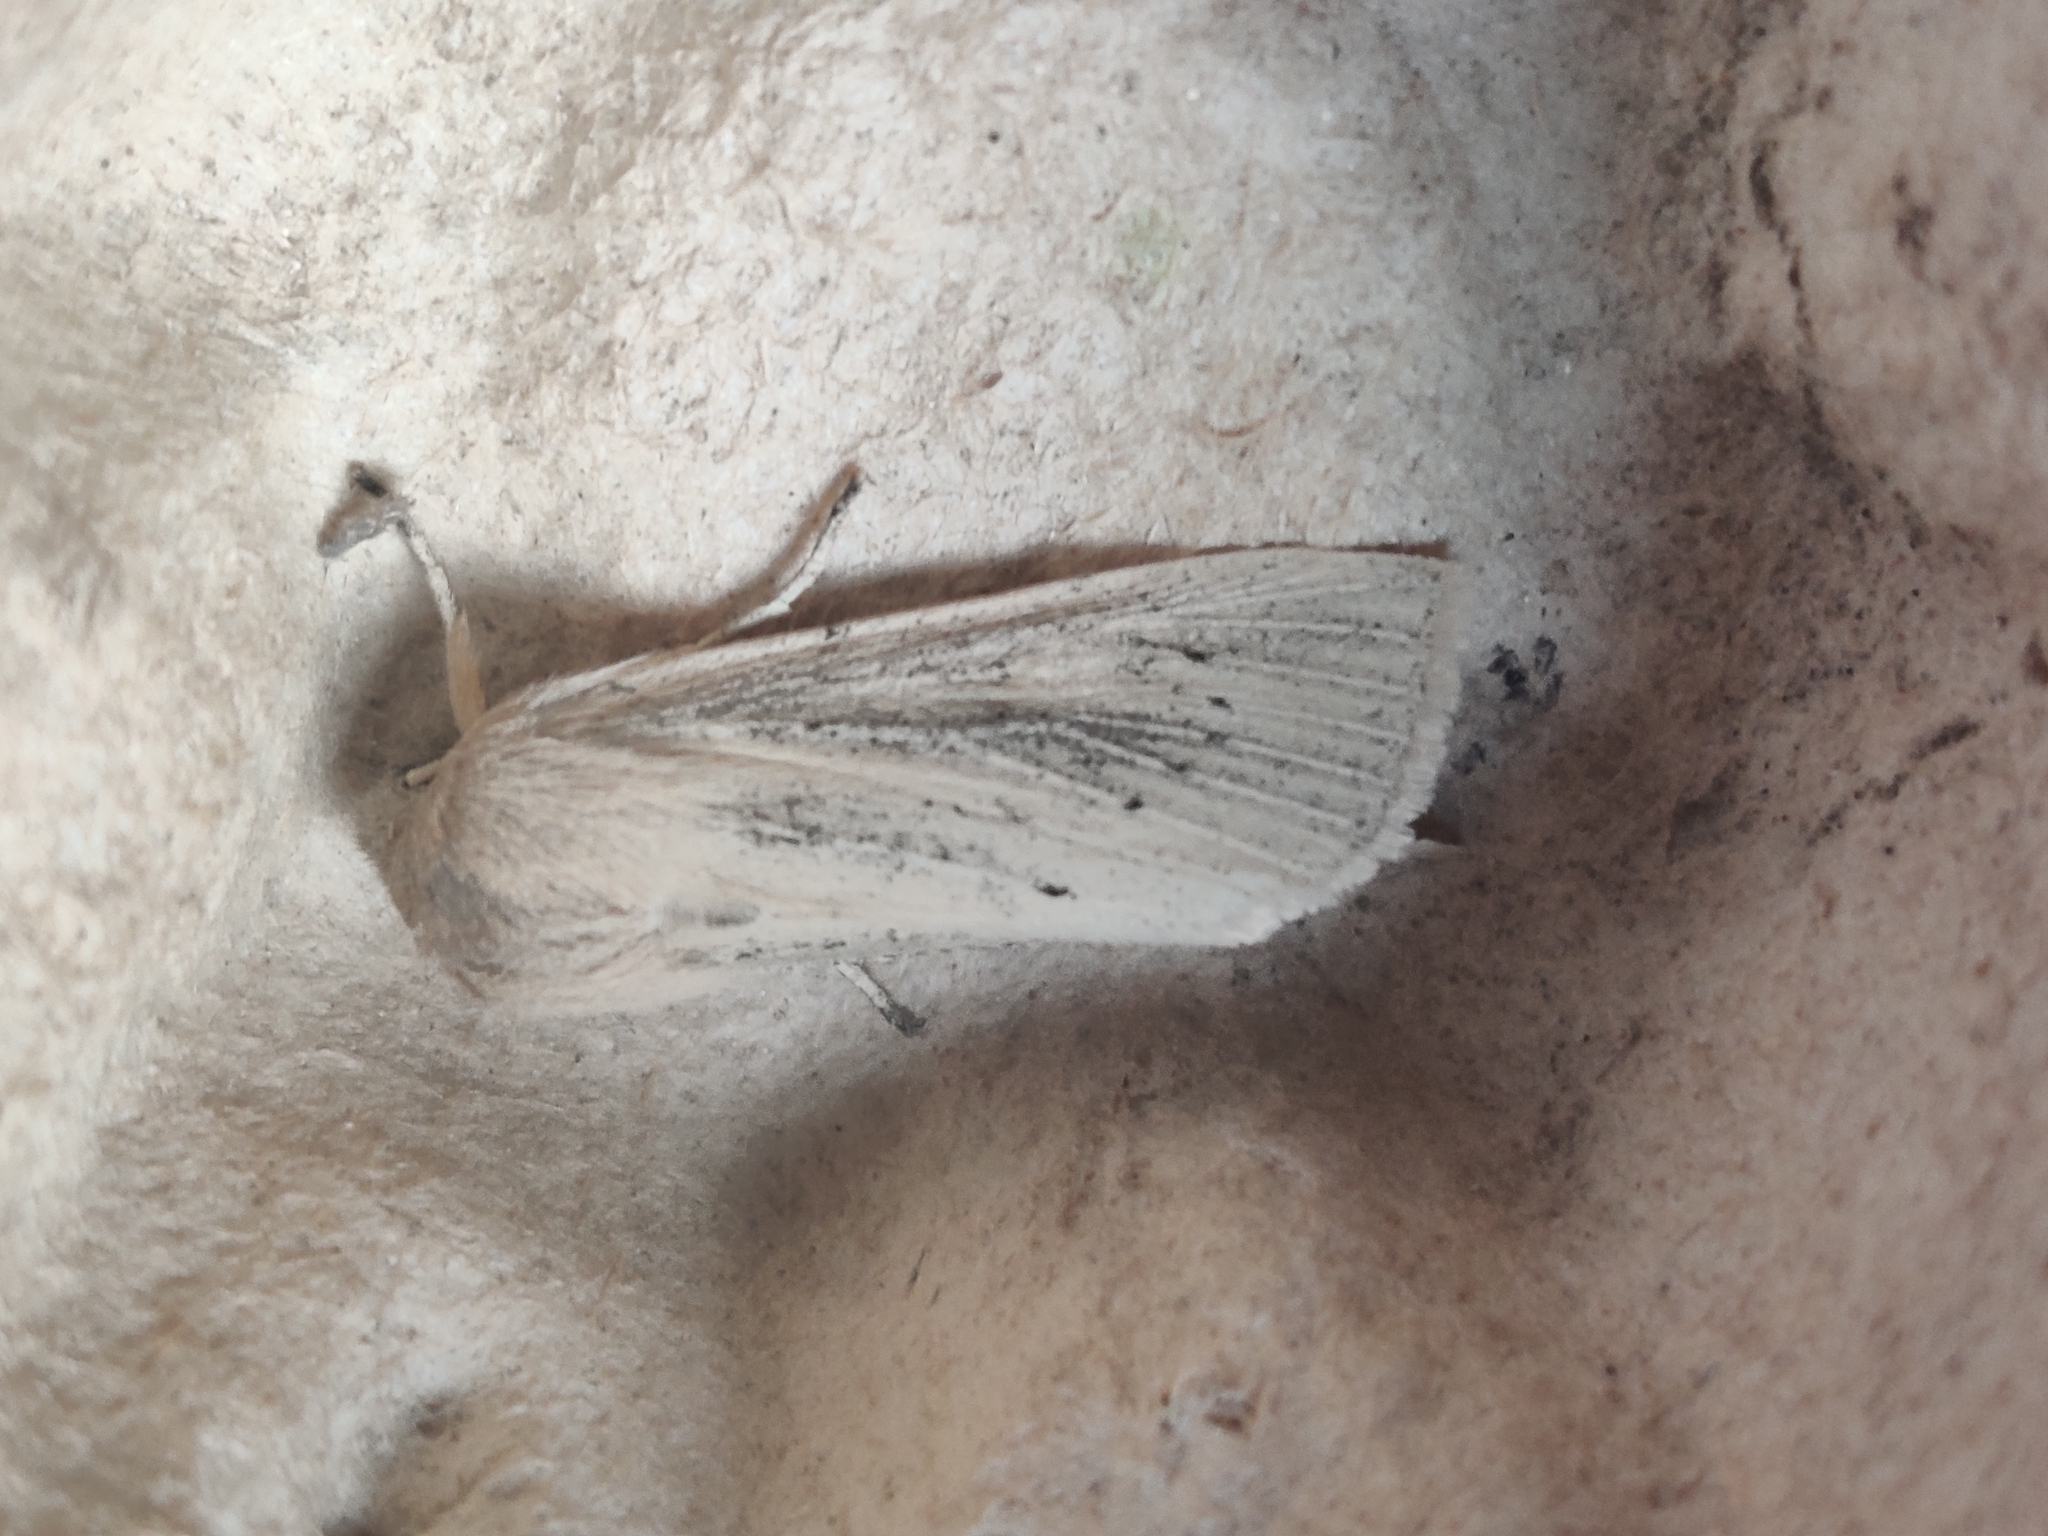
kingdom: Animalia
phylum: Arthropoda
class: Insecta
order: Lepidoptera
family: Noctuidae
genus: Rhizedra
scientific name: Rhizedra lutosa
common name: Large wainscot
